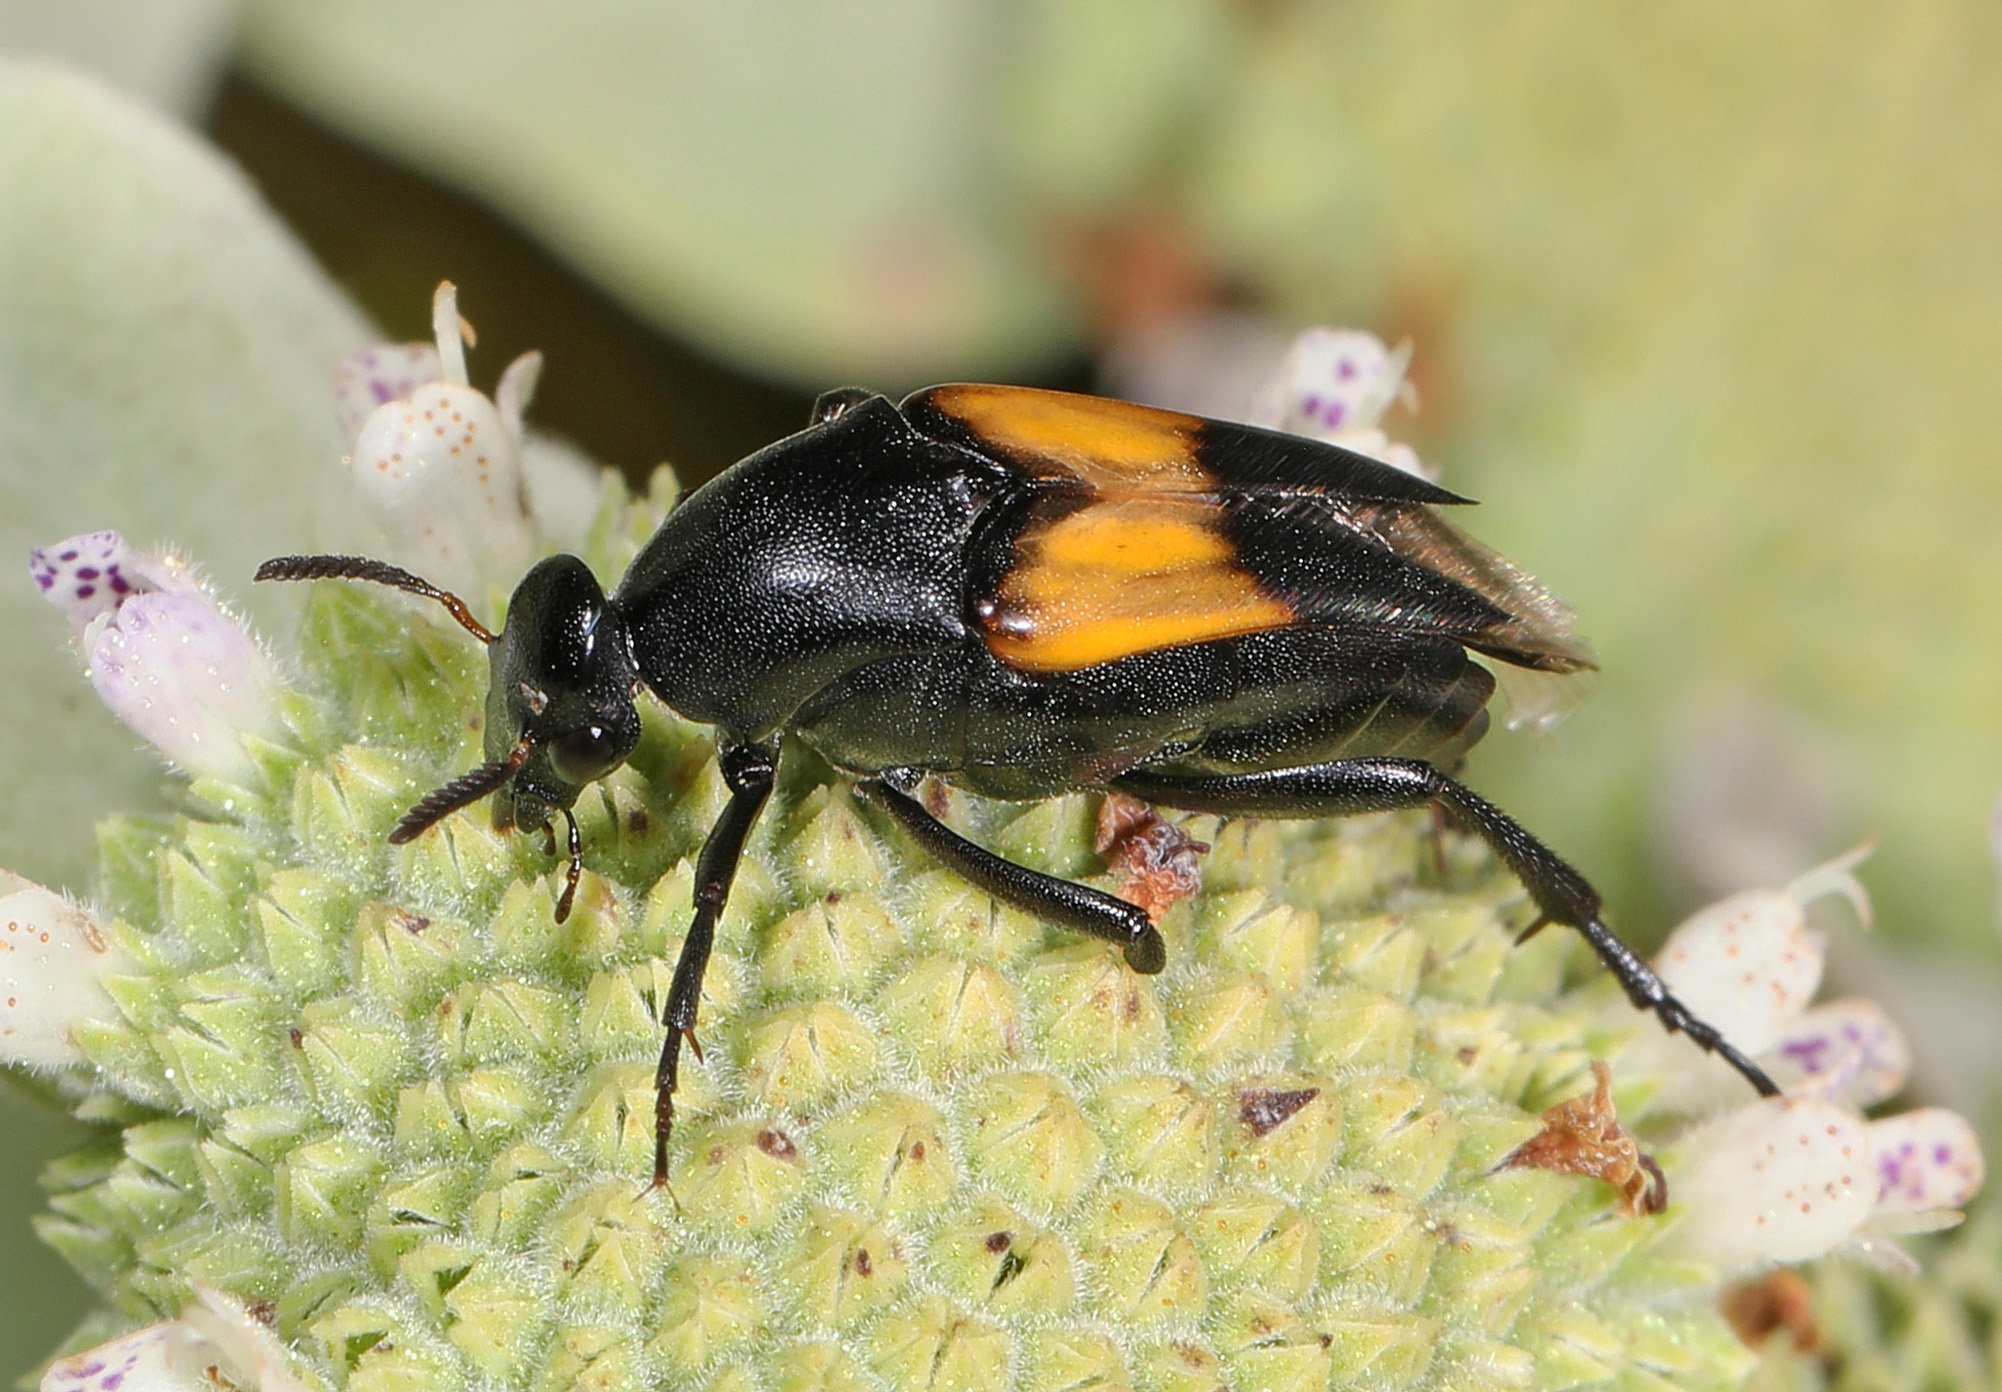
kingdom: Animalia
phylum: Arthropoda
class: Insecta
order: Coleoptera
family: Ripiphoridae
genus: Macrosiagon
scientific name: Macrosiagon dimidiata
